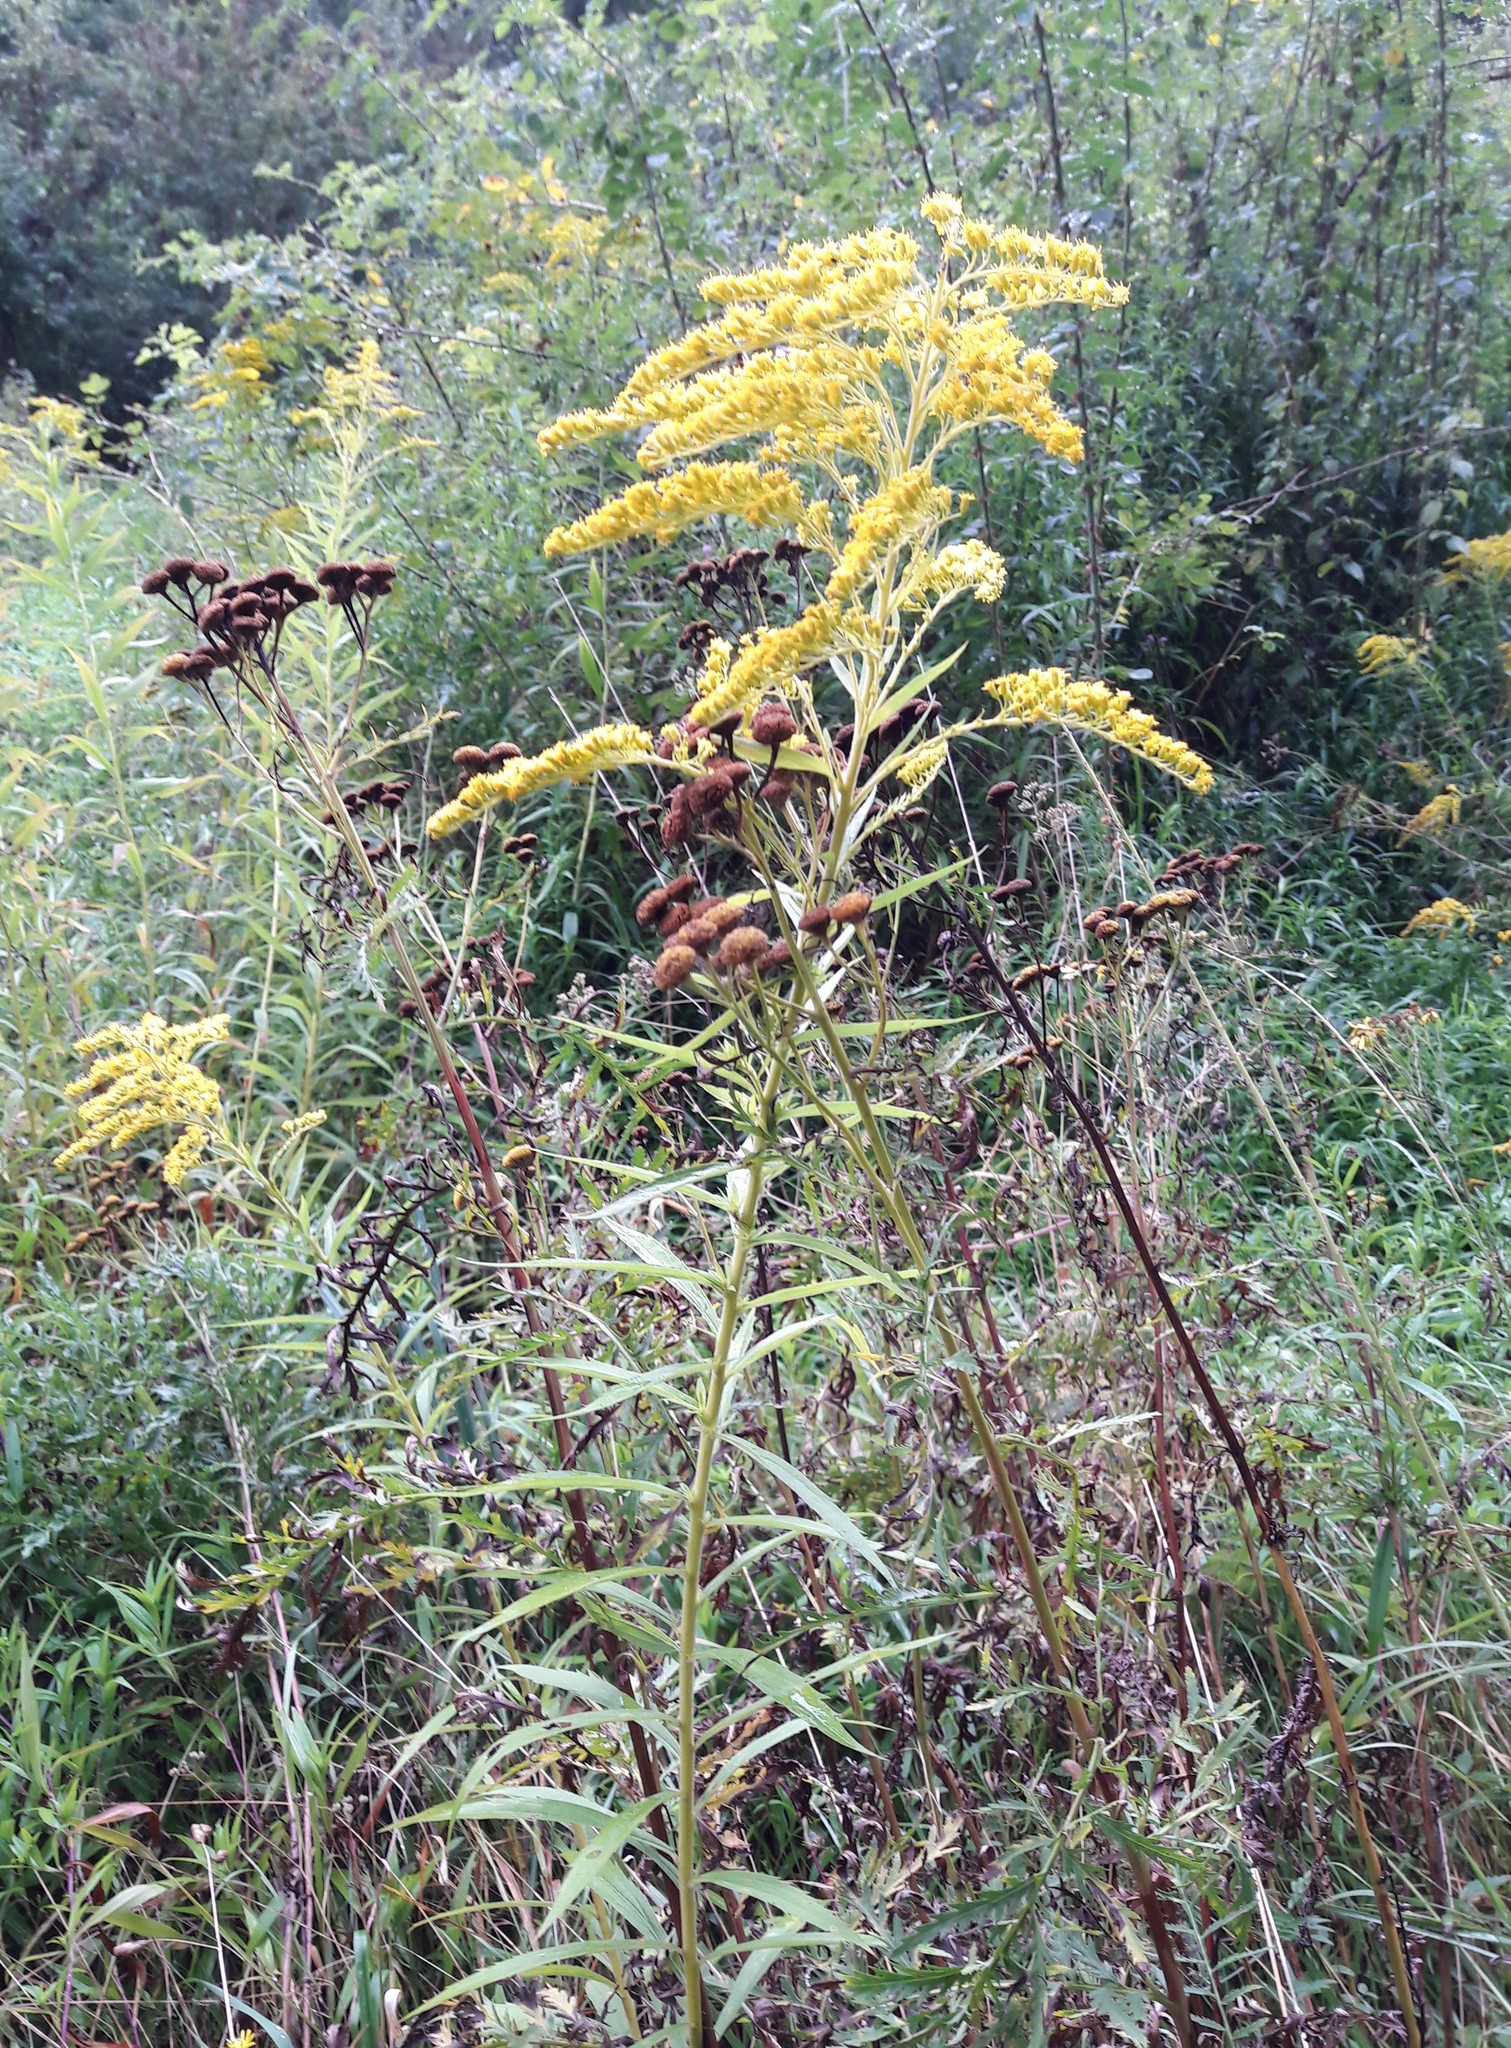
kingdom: Plantae
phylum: Tracheophyta
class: Magnoliopsida
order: Asterales
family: Asteraceae
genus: Solidago
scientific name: Solidago gigantea
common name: Giant goldenrod
